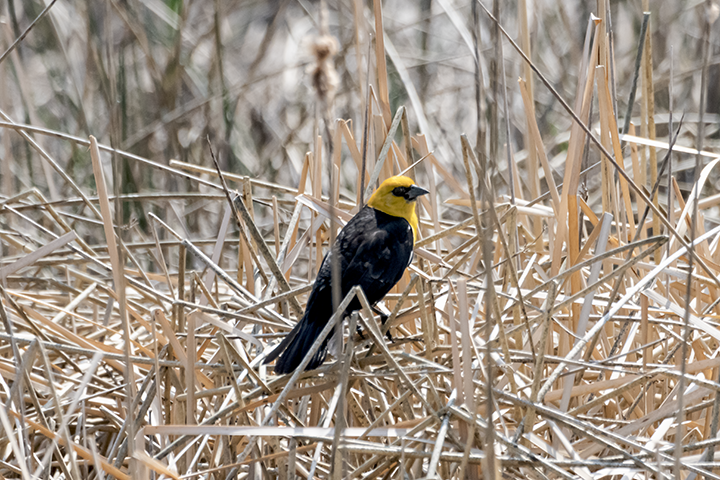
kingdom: Animalia
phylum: Chordata
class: Aves
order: Passeriformes
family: Icteridae
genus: Xanthocephalus
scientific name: Xanthocephalus xanthocephalus
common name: Yellow-headed blackbird
